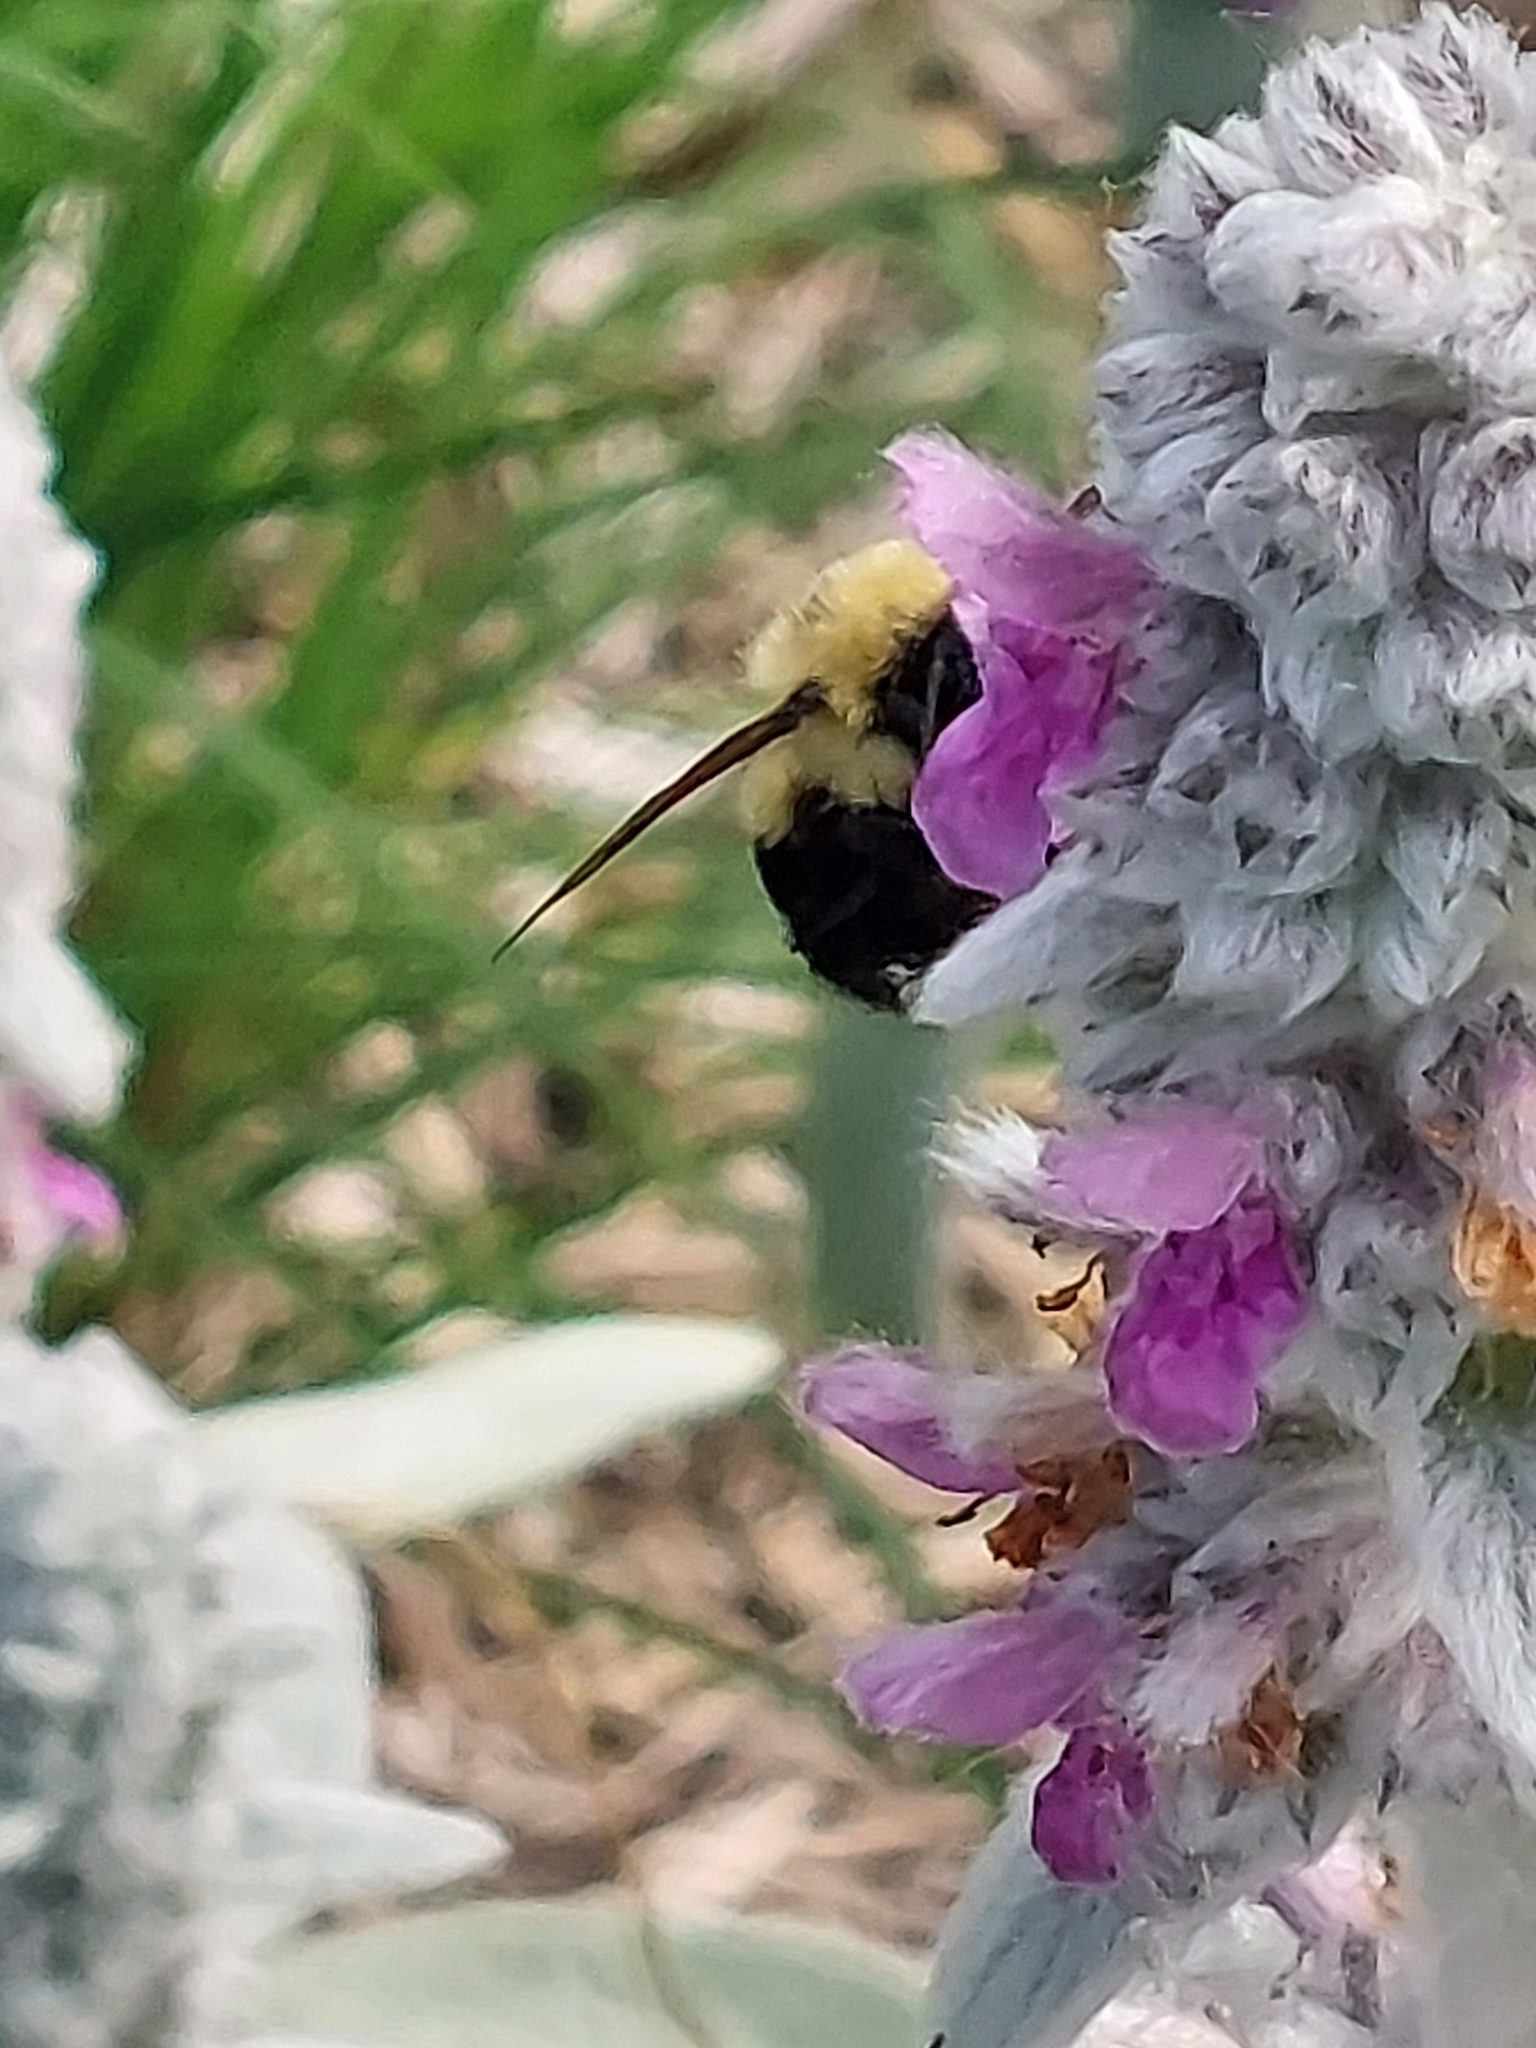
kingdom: Animalia
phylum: Arthropoda
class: Insecta
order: Hymenoptera
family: Apidae
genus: Bombus
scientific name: Bombus bimaculatus
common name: Two-spotted bumble bee
